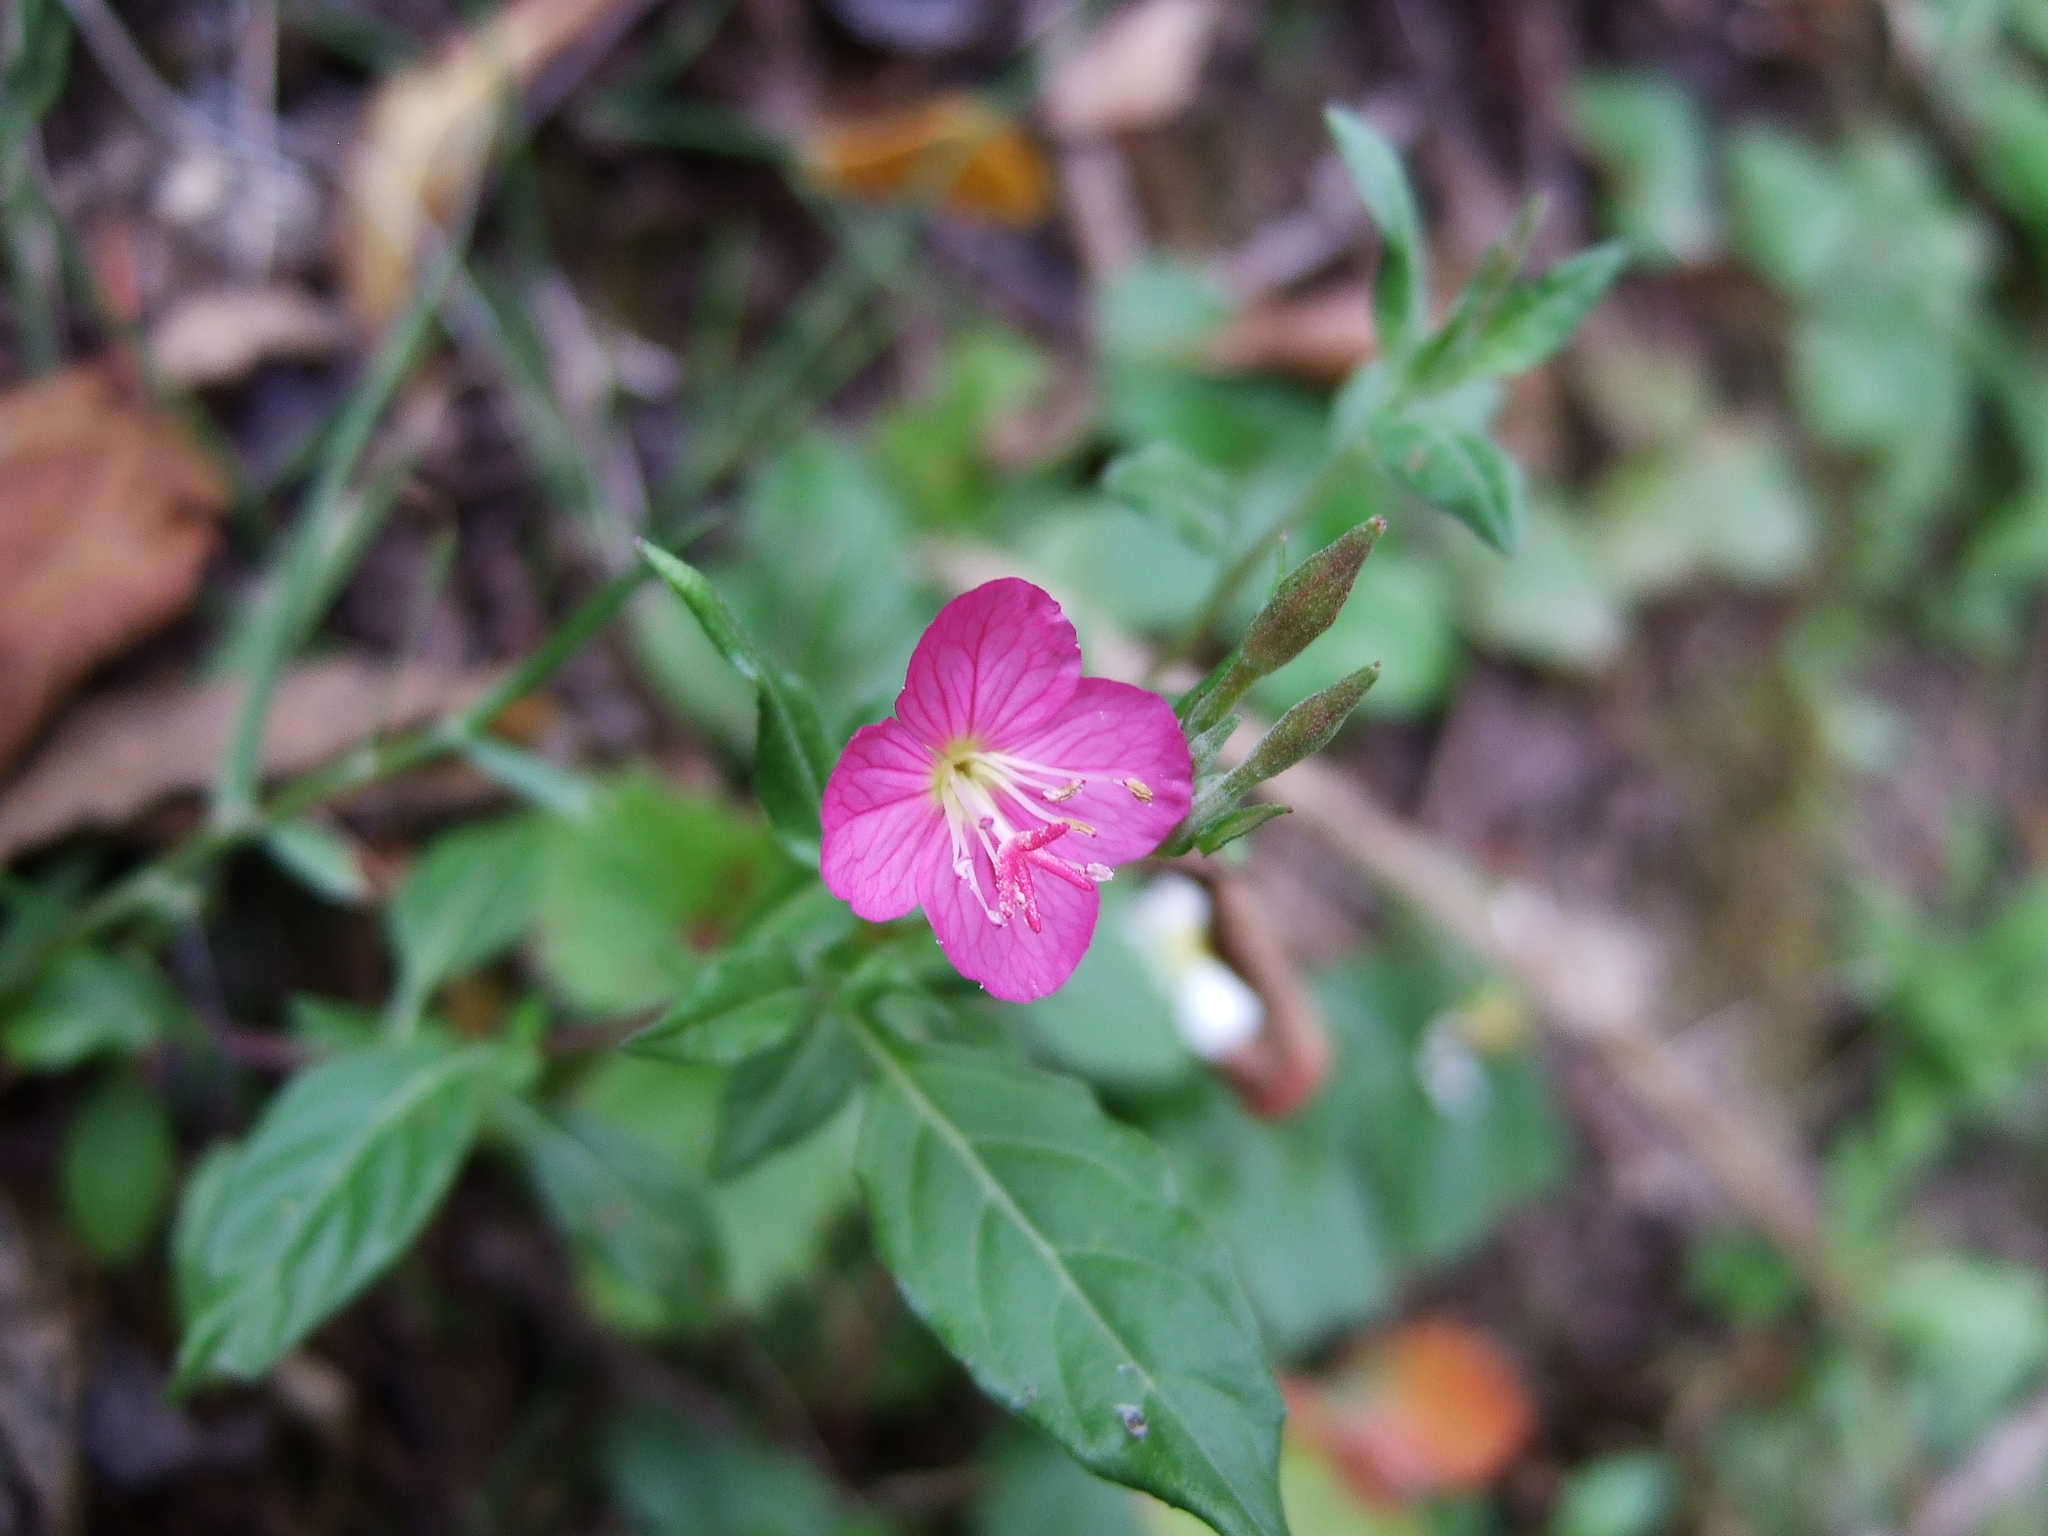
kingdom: Plantae
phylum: Tracheophyta
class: Magnoliopsida
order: Myrtales
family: Onagraceae
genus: Oenothera
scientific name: Oenothera rosea
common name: Rosy evening-primrose
